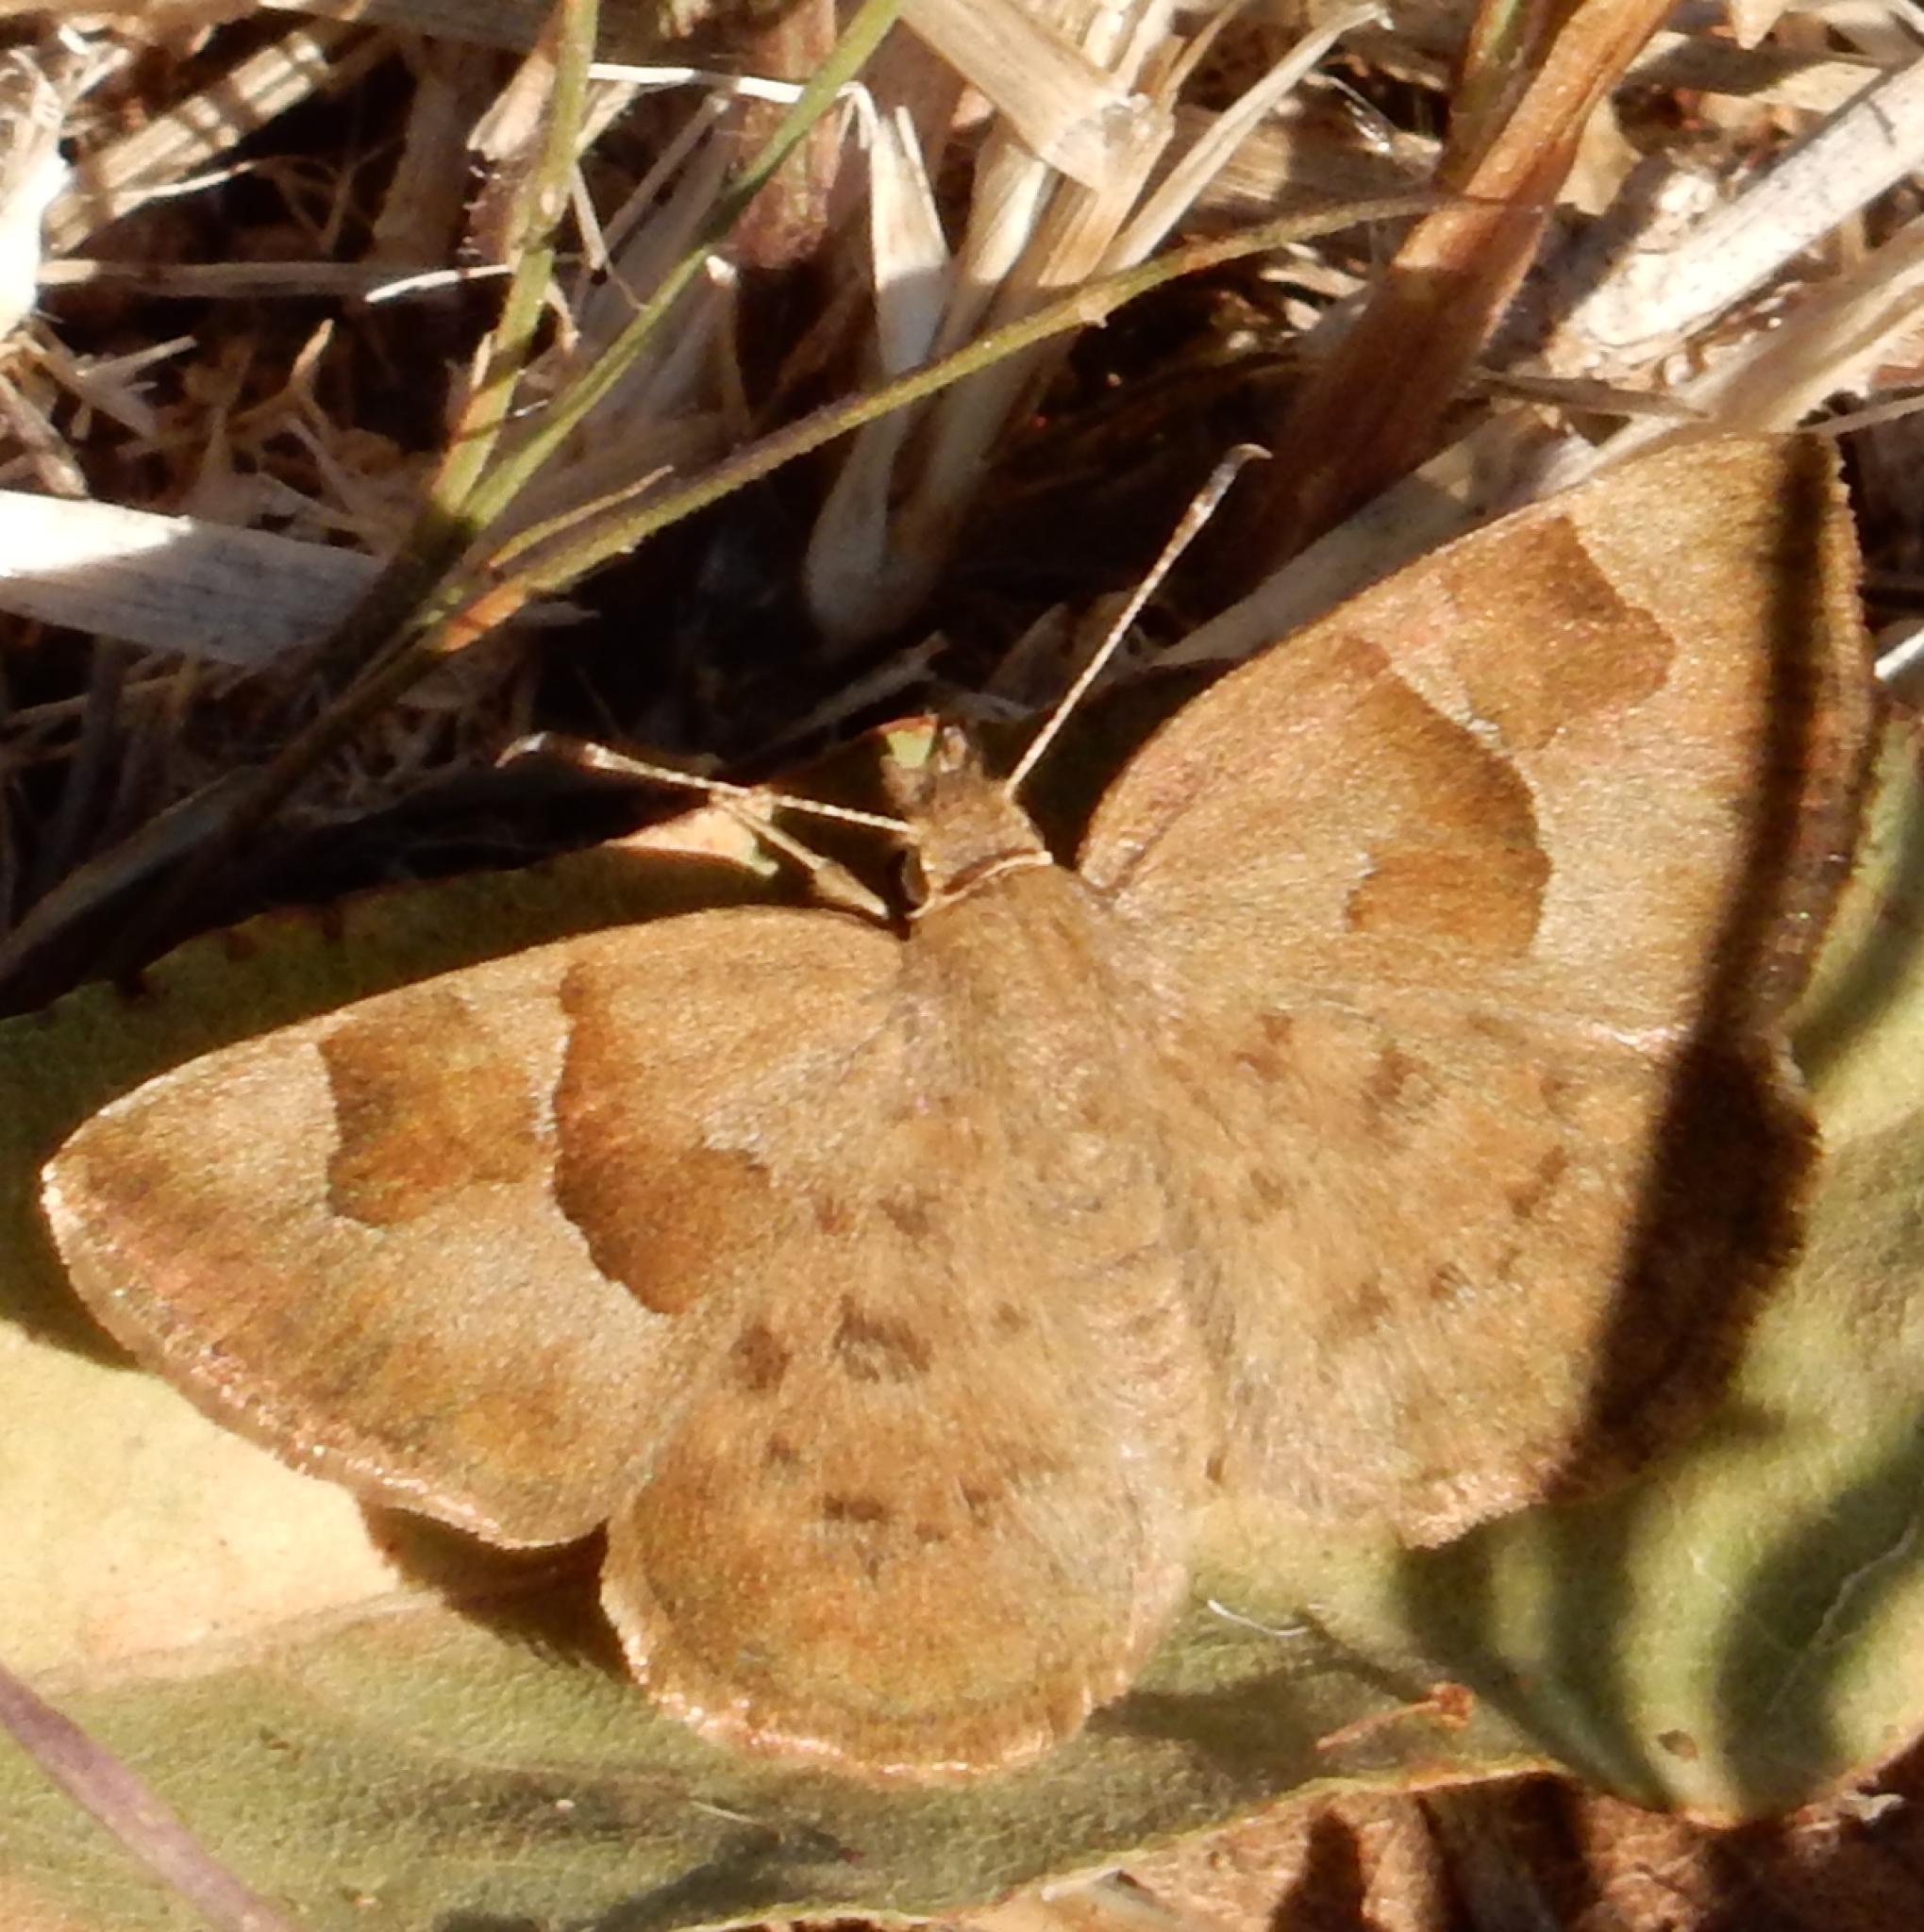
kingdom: Animalia
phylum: Arthropoda
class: Insecta
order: Lepidoptera
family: Hesperiidae
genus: Sarangesa
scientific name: Sarangesa phidyle
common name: Small elfin
